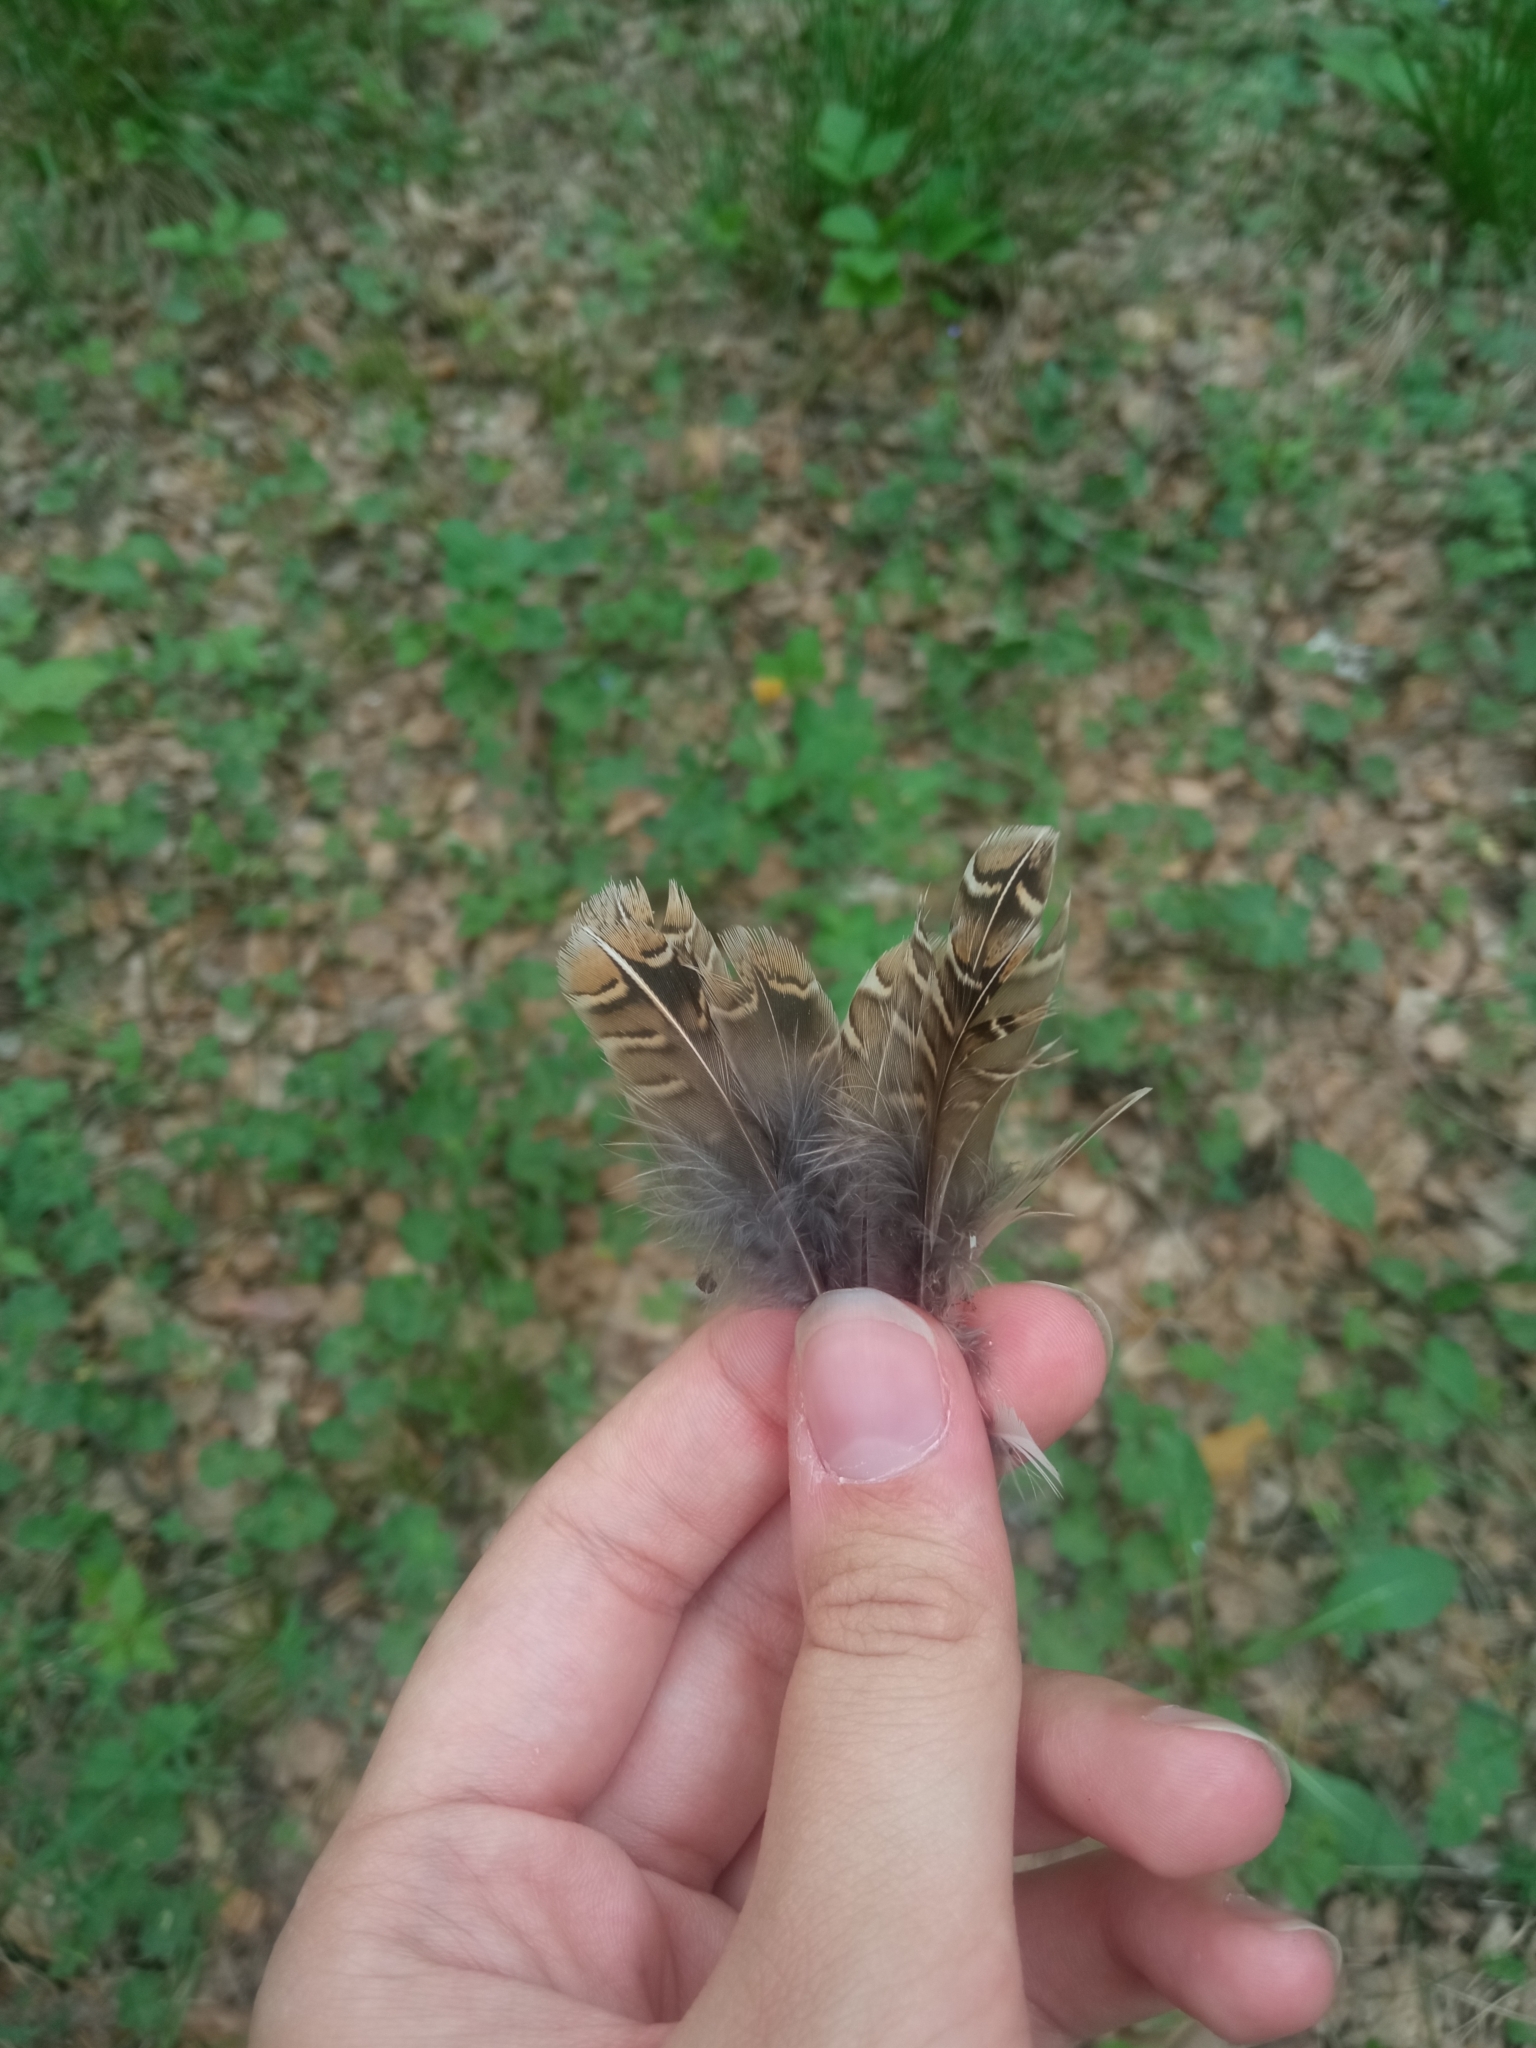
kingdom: Animalia
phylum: Chordata
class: Aves
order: Galliformes
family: Phasianidae
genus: Coturnix
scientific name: Coturnix coturnix
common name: Common quail
